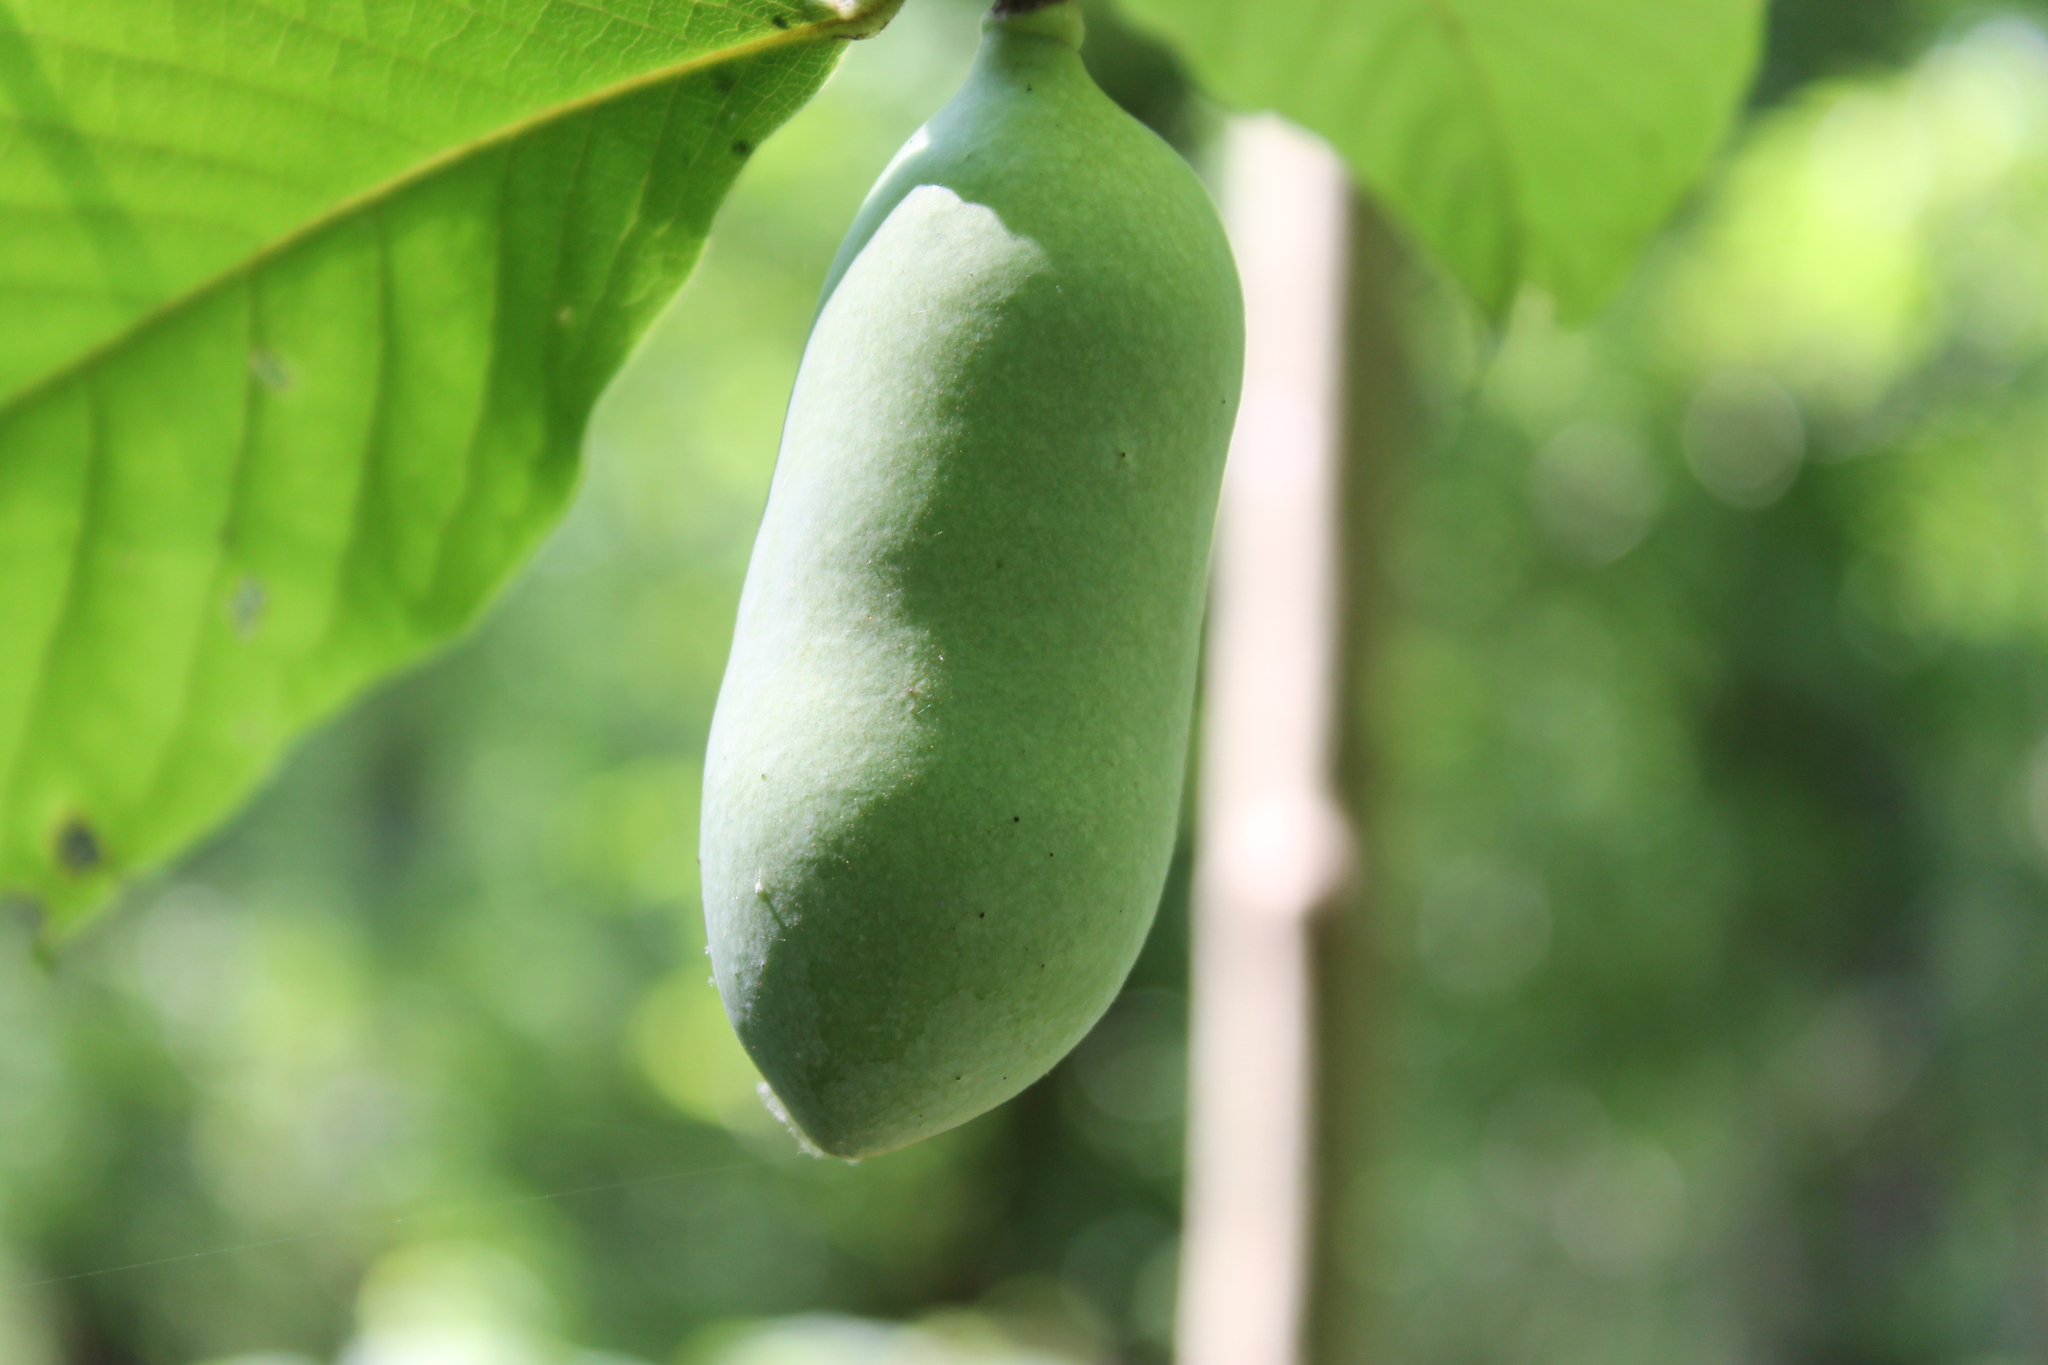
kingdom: Plantae
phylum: Tracheophyta
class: Magnoliopsida
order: Magnoliales
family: Annonaceae
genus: Asimina
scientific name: Asimina triloba
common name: Dog-banana
